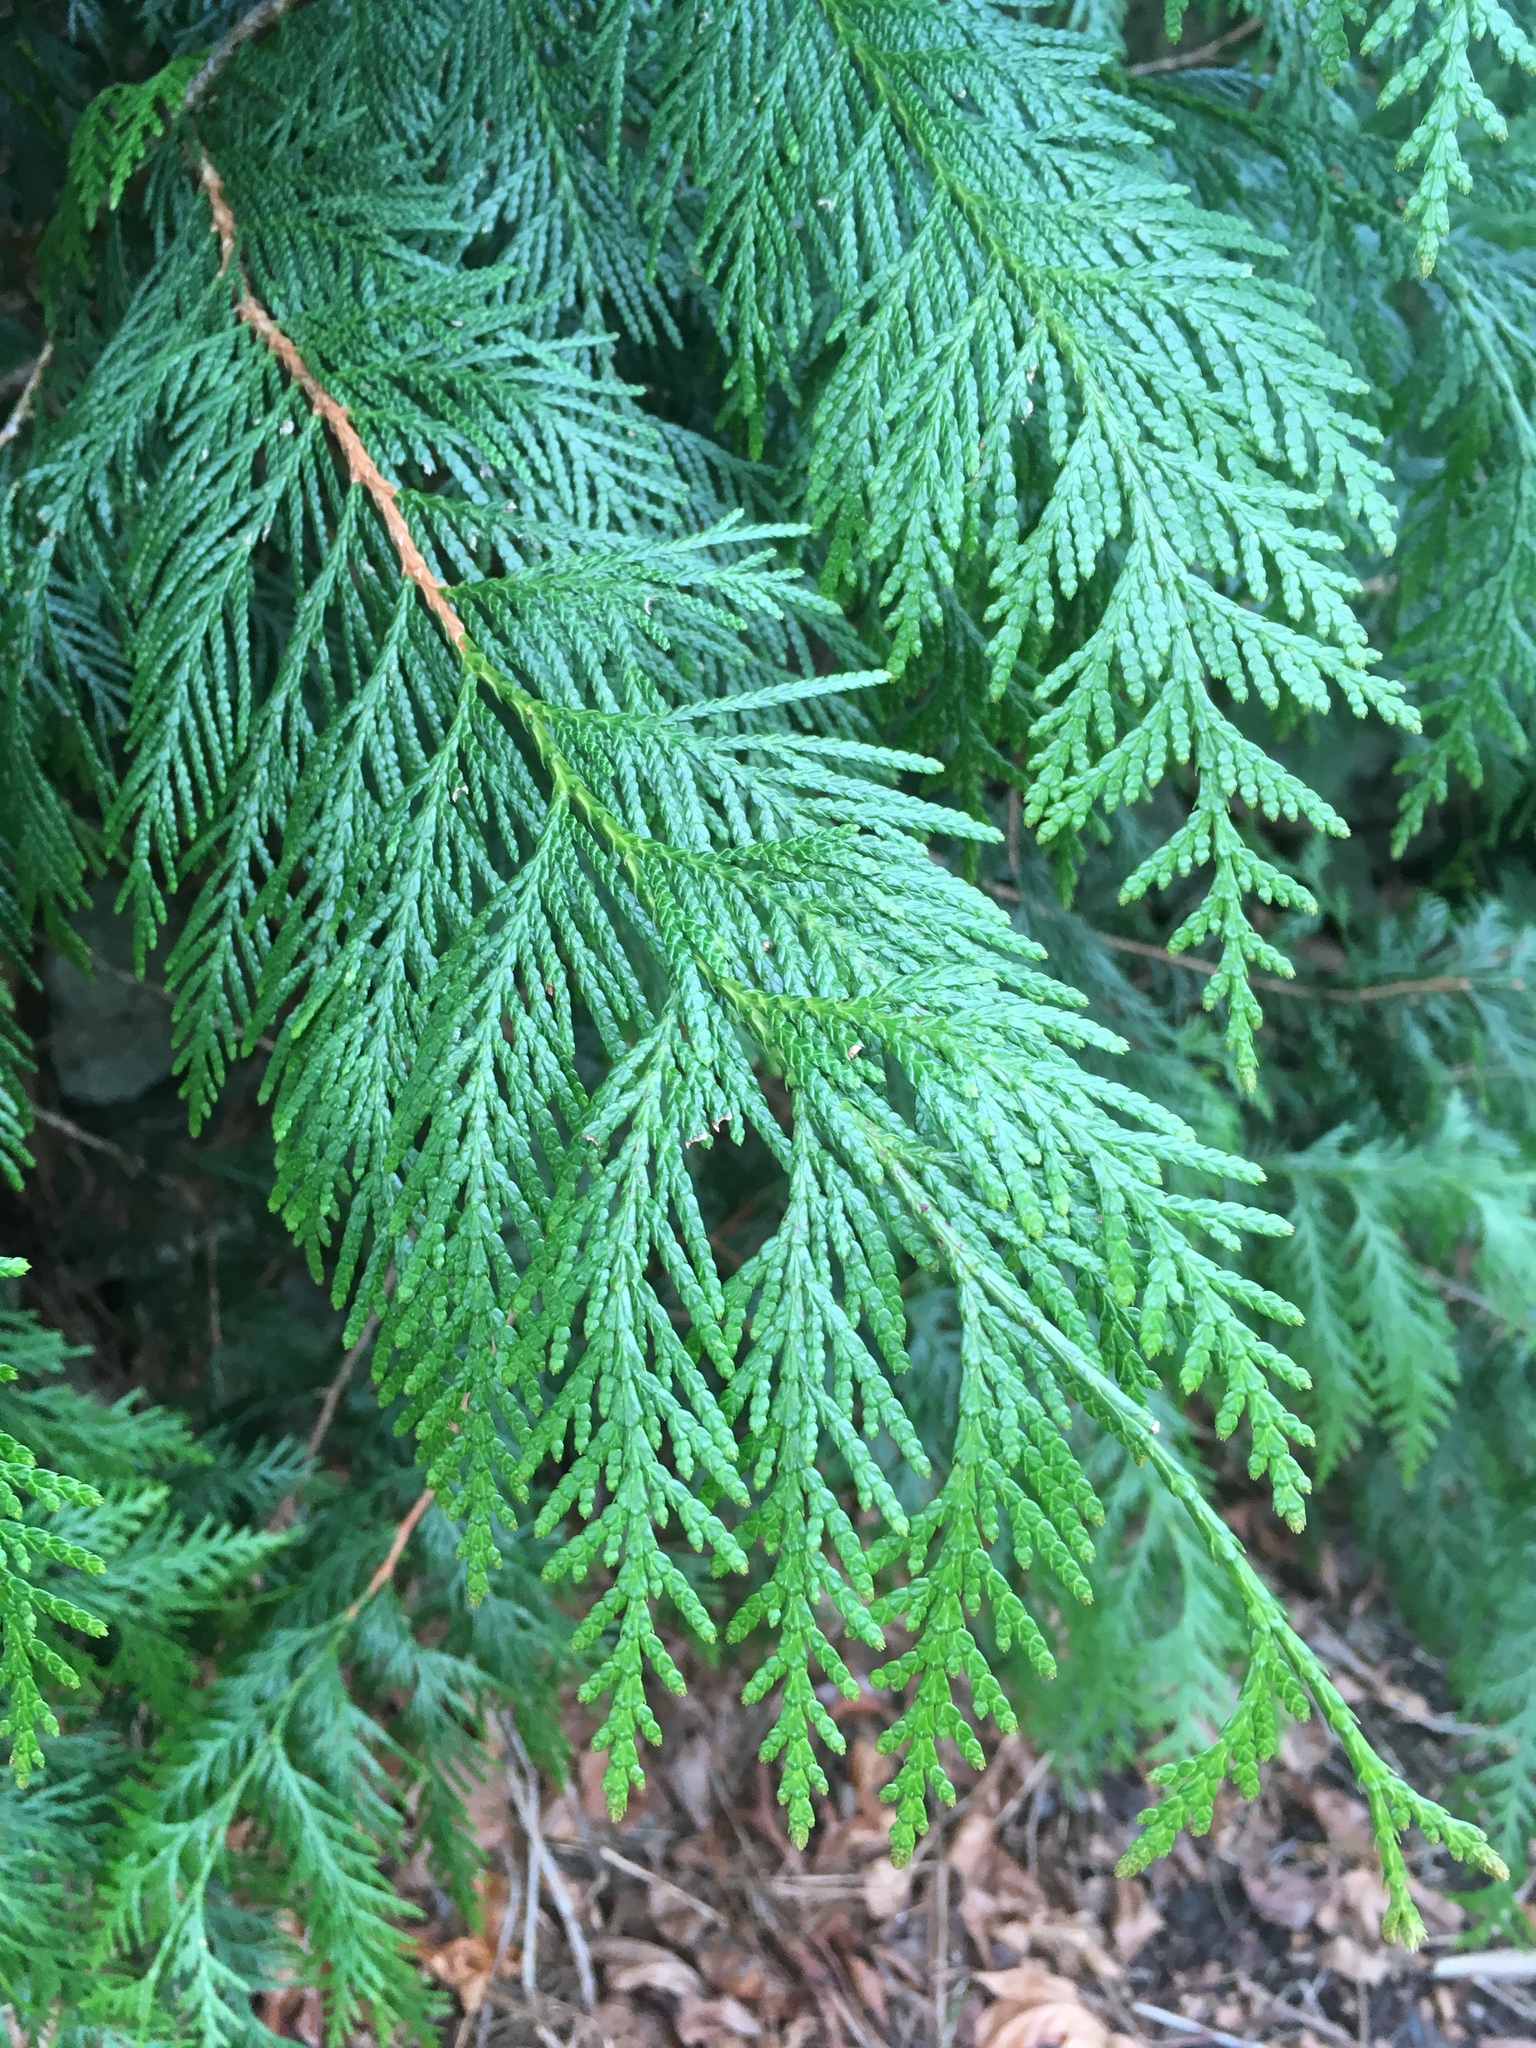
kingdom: Plantae
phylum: Tracheophyta
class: Pinopsida
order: Pinales
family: Cupressaceae
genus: Thuja
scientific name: Thuja plicata
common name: Western red-cedar
